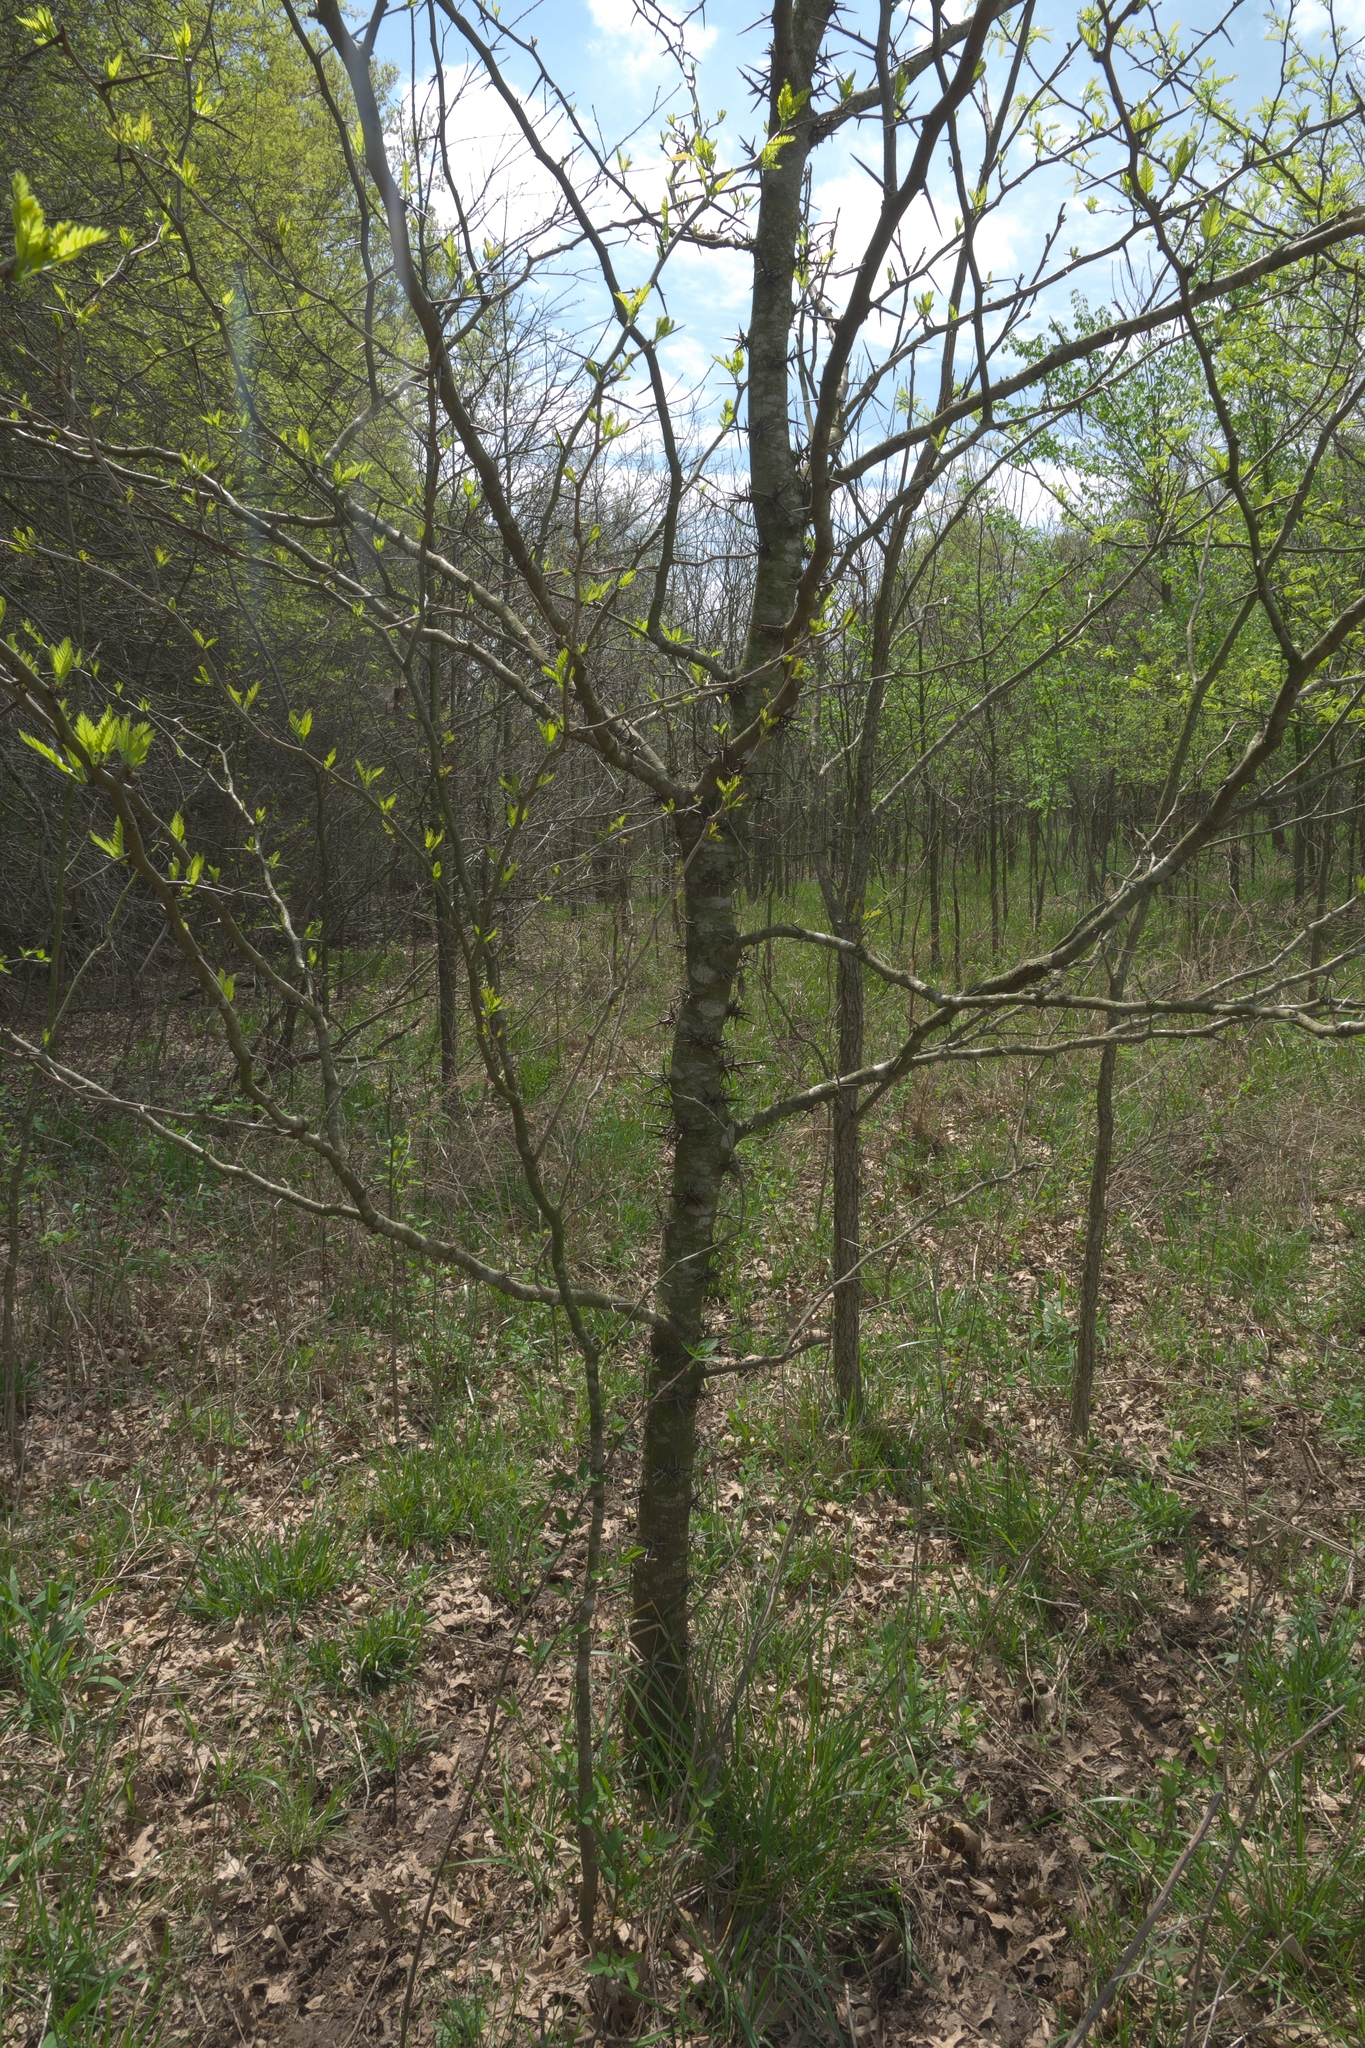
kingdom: Plantae
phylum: Tracheophyta
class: Magnoliopsida
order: Fabales
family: Fabaceae
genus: Gleditsia
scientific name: Gleditsia triacanthos
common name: Common honeylocust
